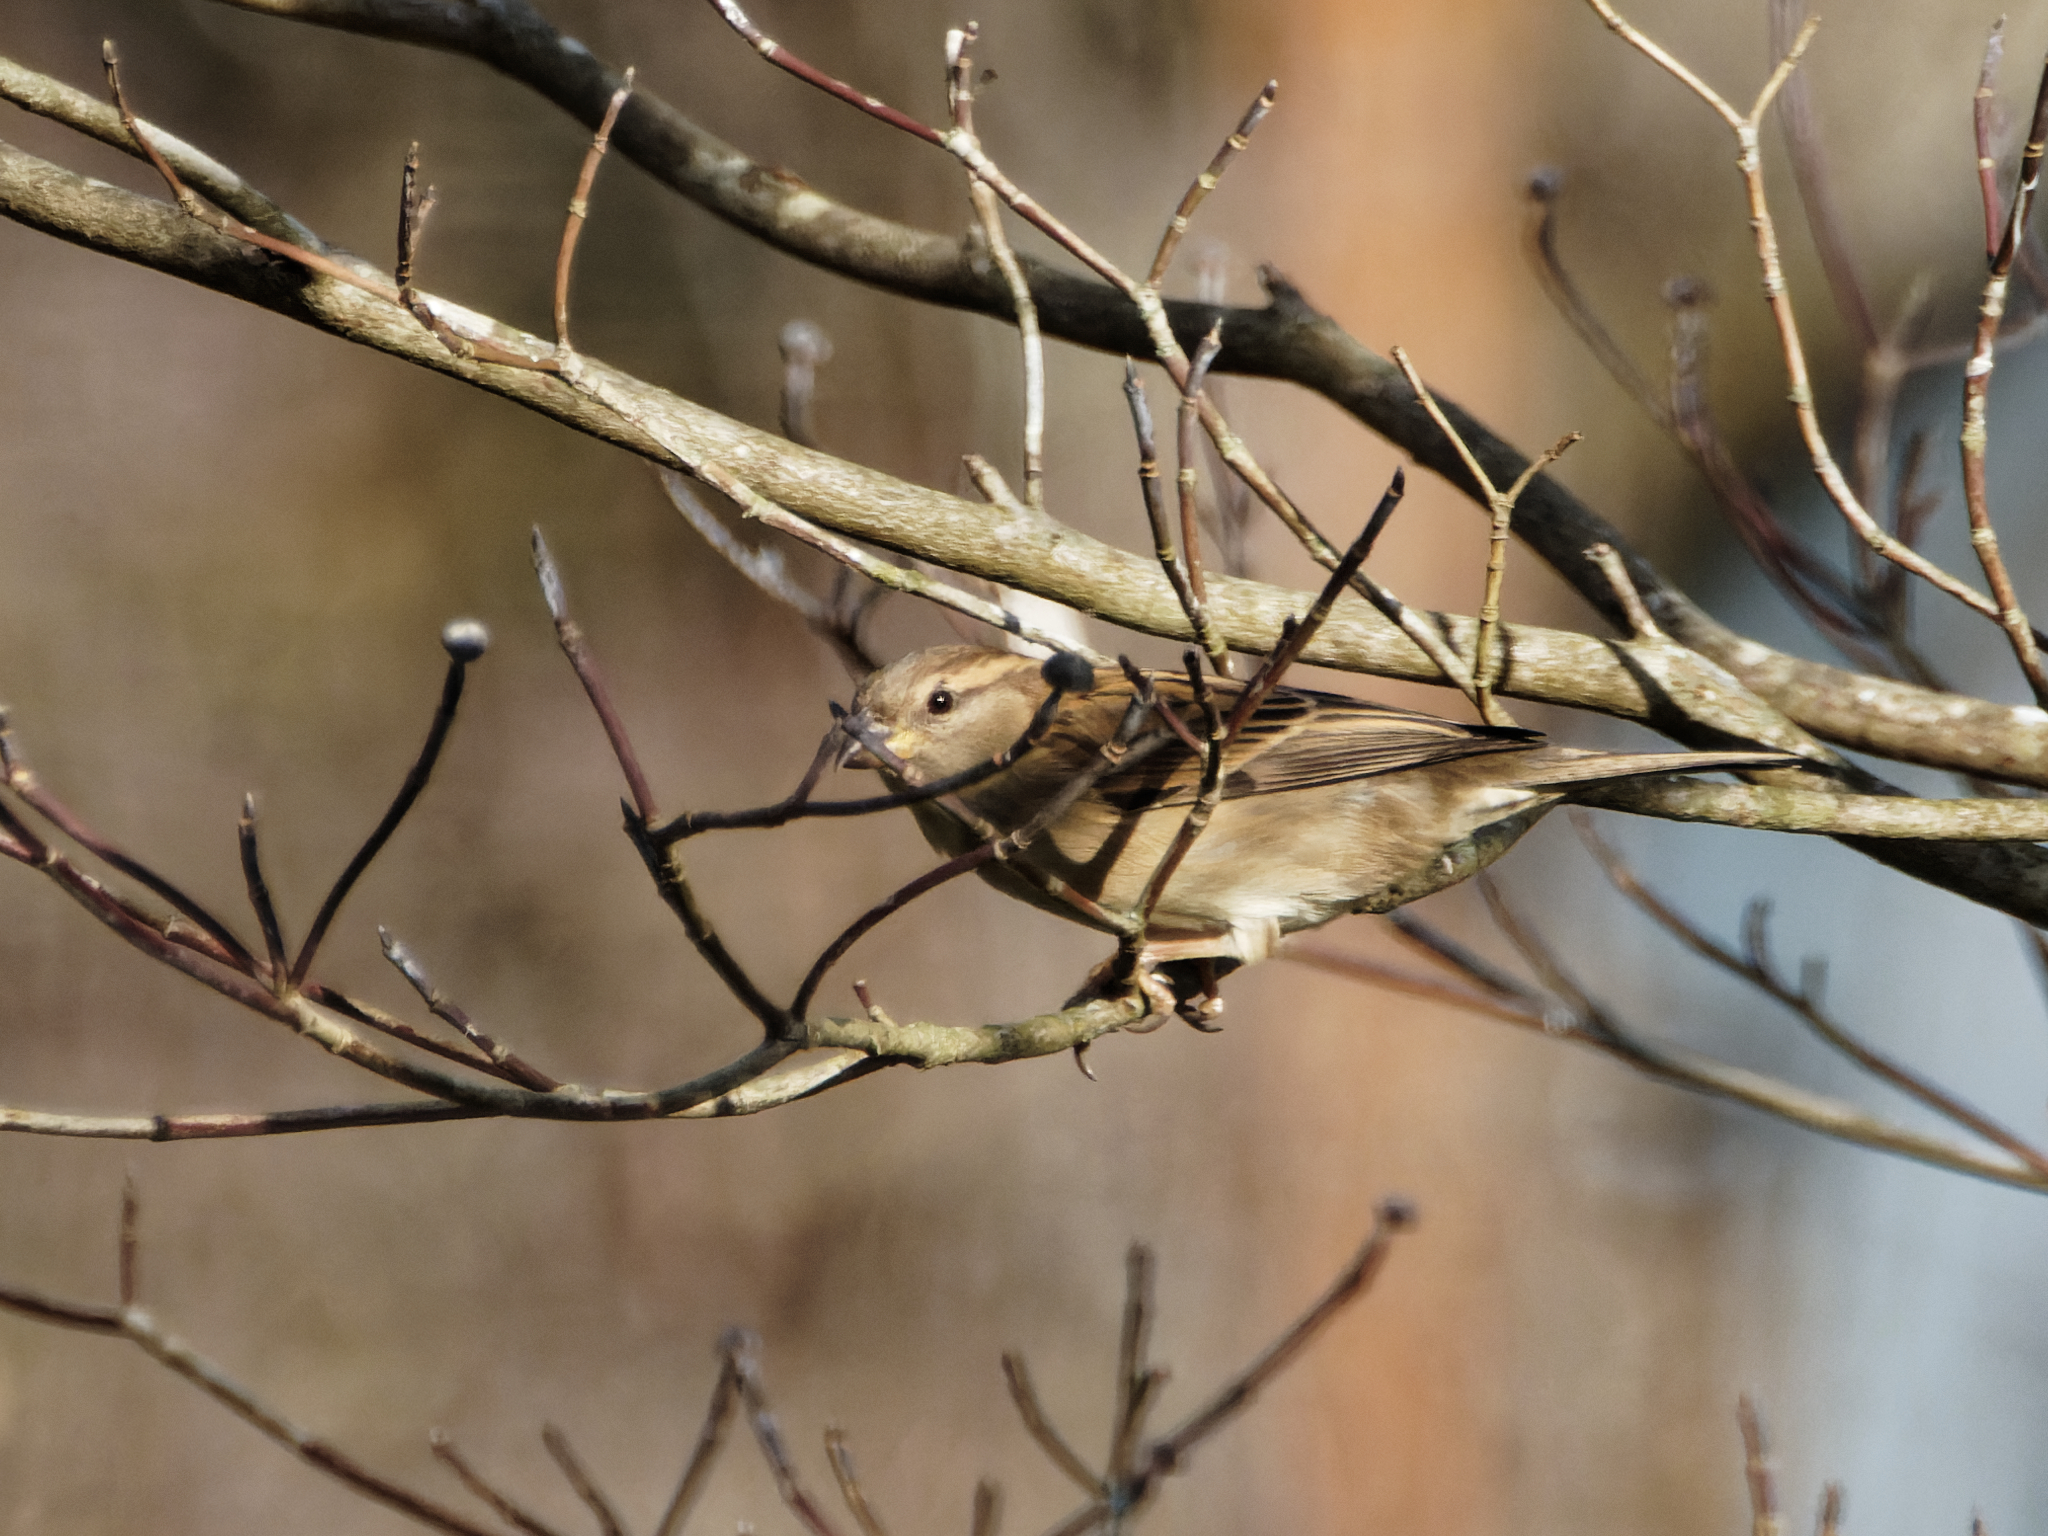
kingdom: Animalia
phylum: Chordata
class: Aves
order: Passeriformes
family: Passeridae
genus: Passer
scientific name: Passer domesticus
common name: House sparrow
